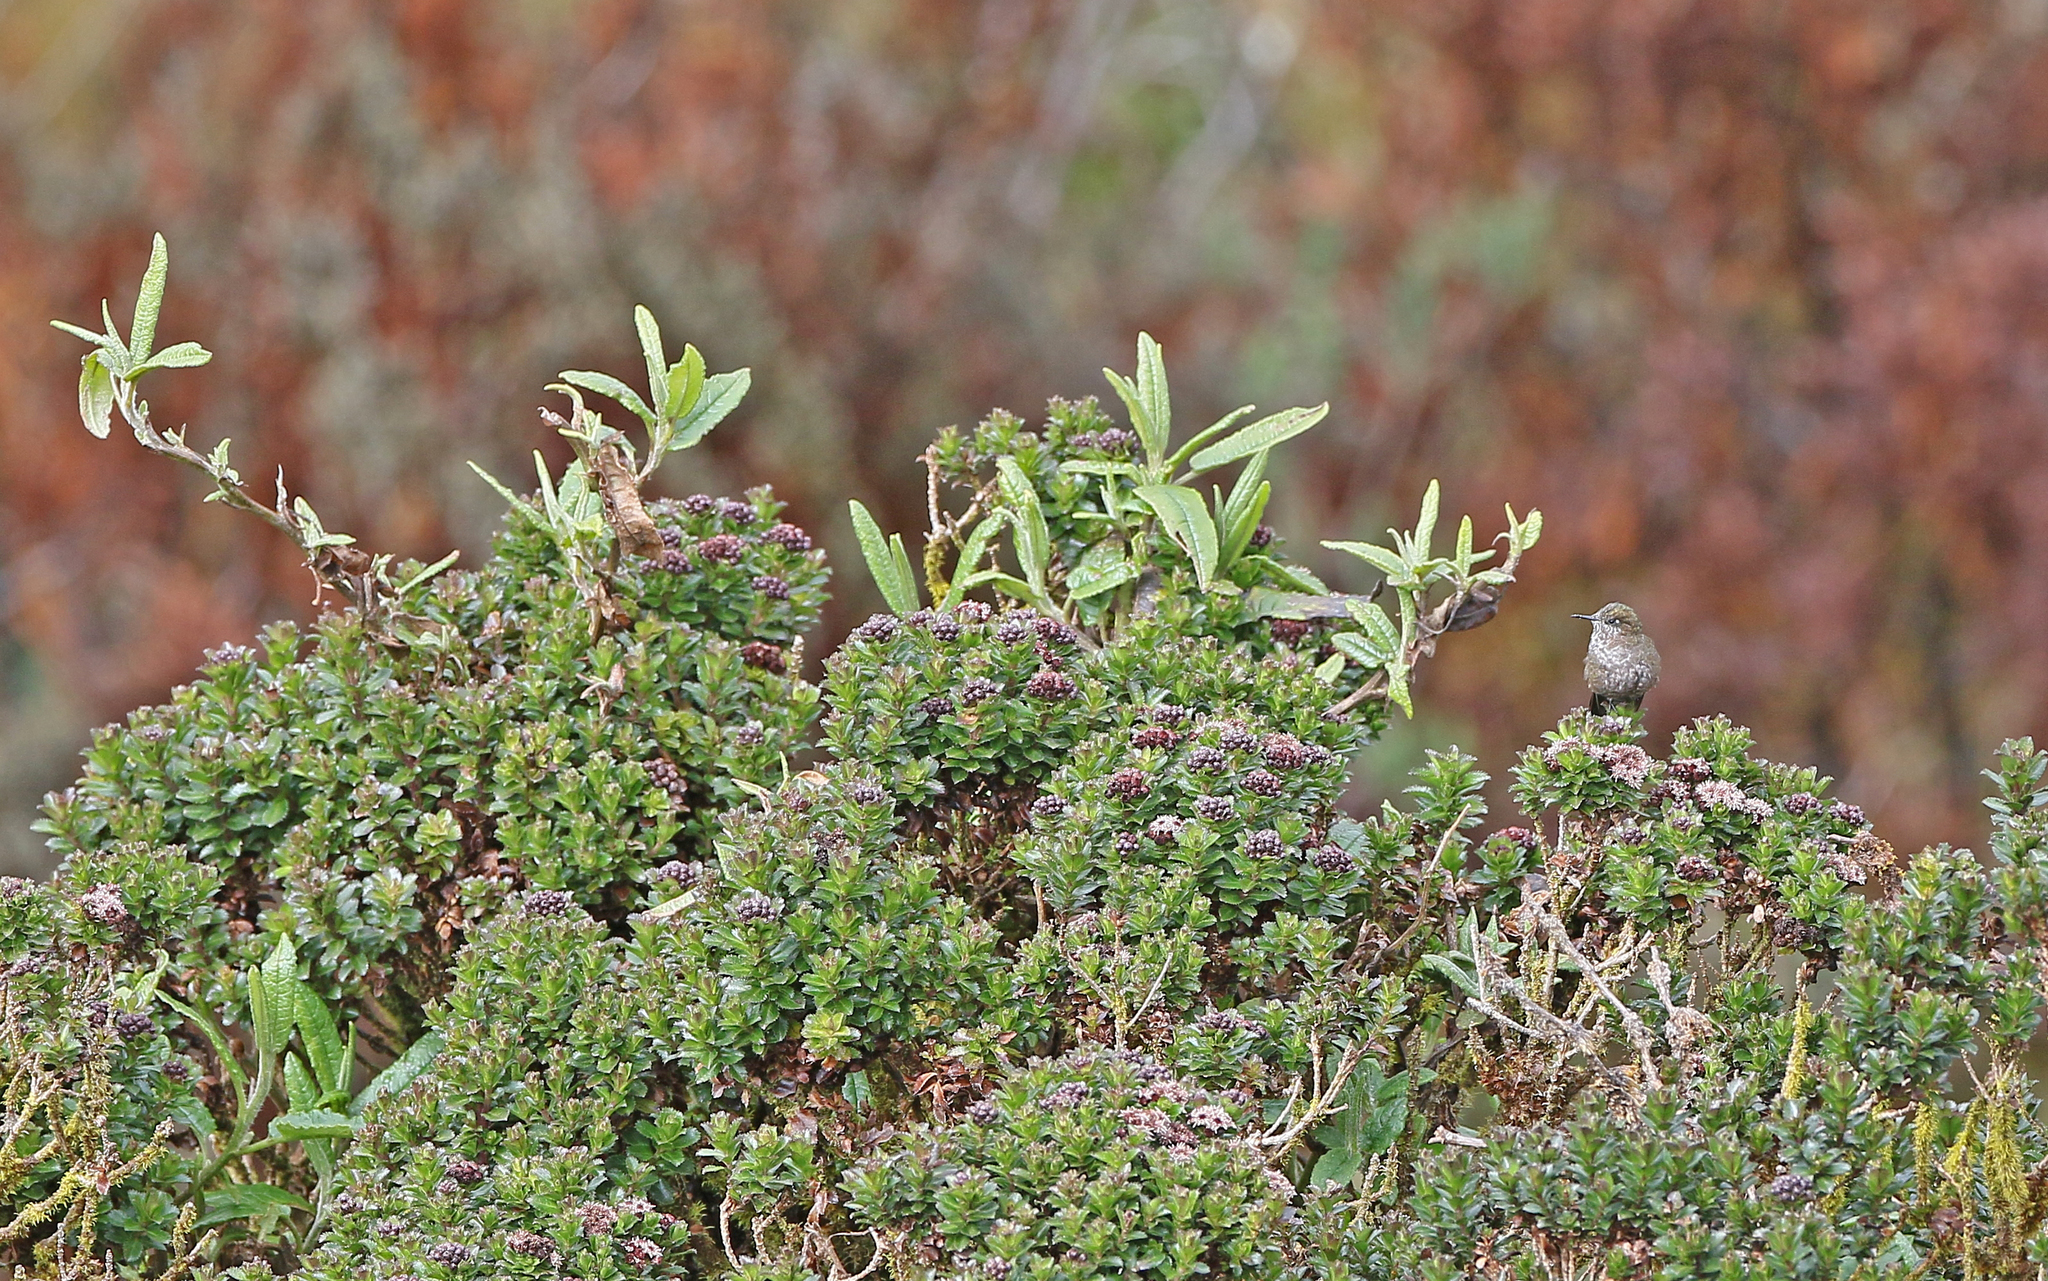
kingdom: Animalia
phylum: Chordata
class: Aves
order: Apodiformes
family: Trochilidae
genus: Chalcostigma
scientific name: Chalcostigma stanleyi
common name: Blue-mantled thornbill
